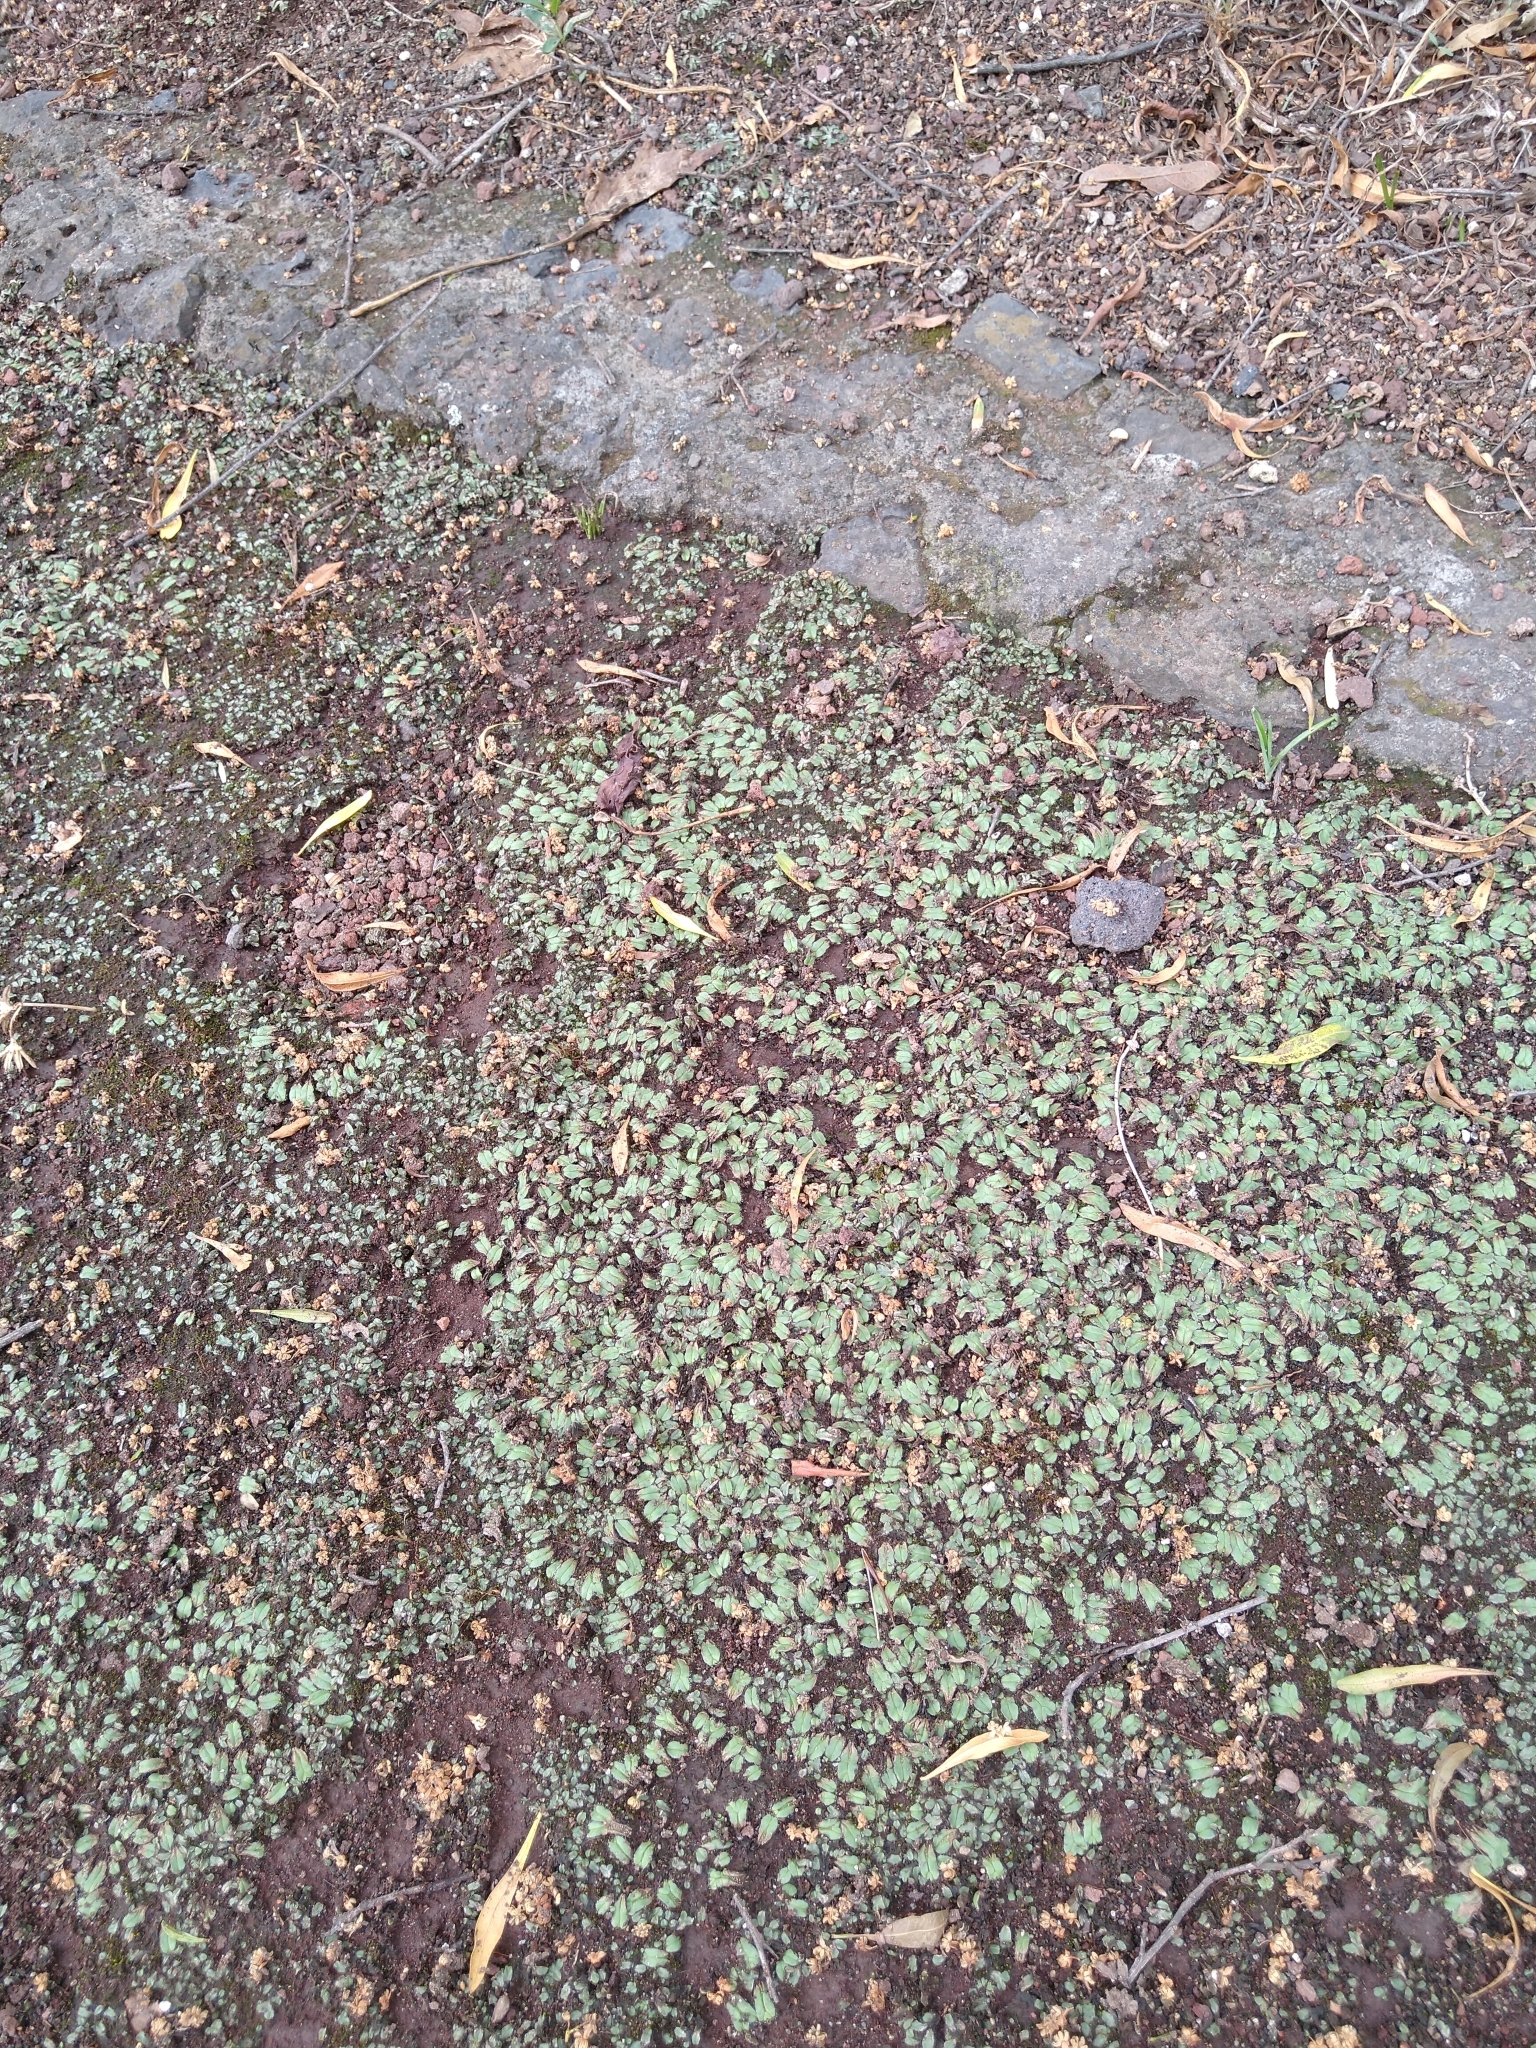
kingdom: Plantae
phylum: Marchantiophyta
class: Marchantiopsida
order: Marchantiales
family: Ricciaceae
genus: Oxymitra
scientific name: Oxymitra incrassata
